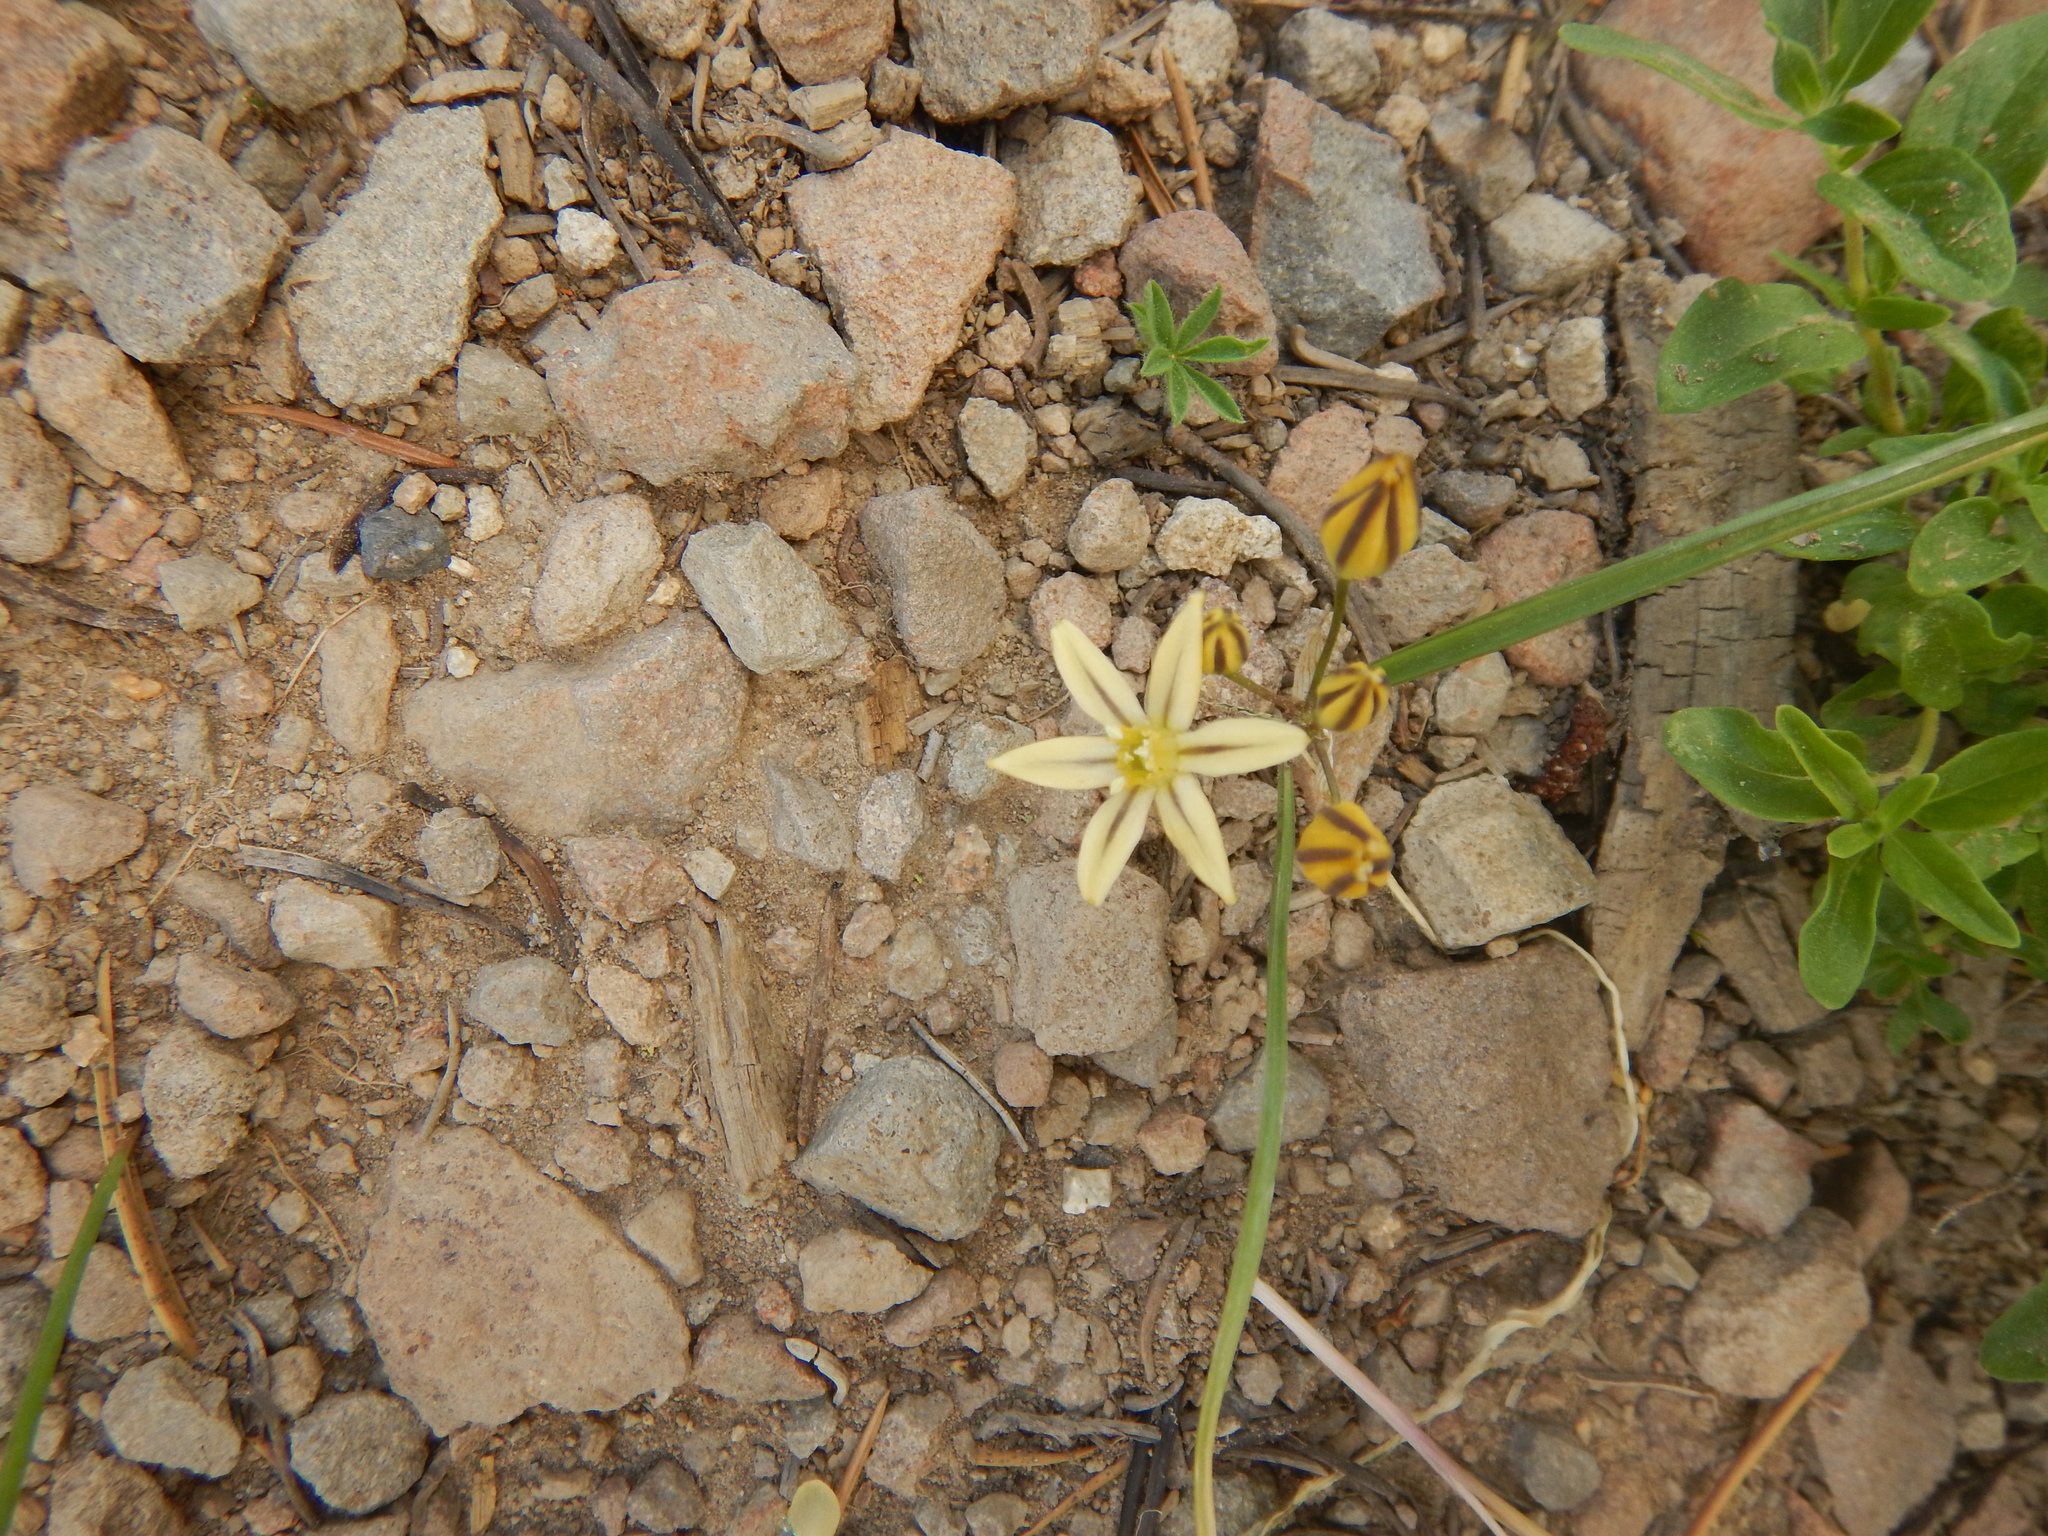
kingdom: Plantae
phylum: Tracheophyta
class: Liliopsida
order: Asparagales
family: Asparagaceae
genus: Triteleia
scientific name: Triteleia ixioides
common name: Yellow-brodiaea
